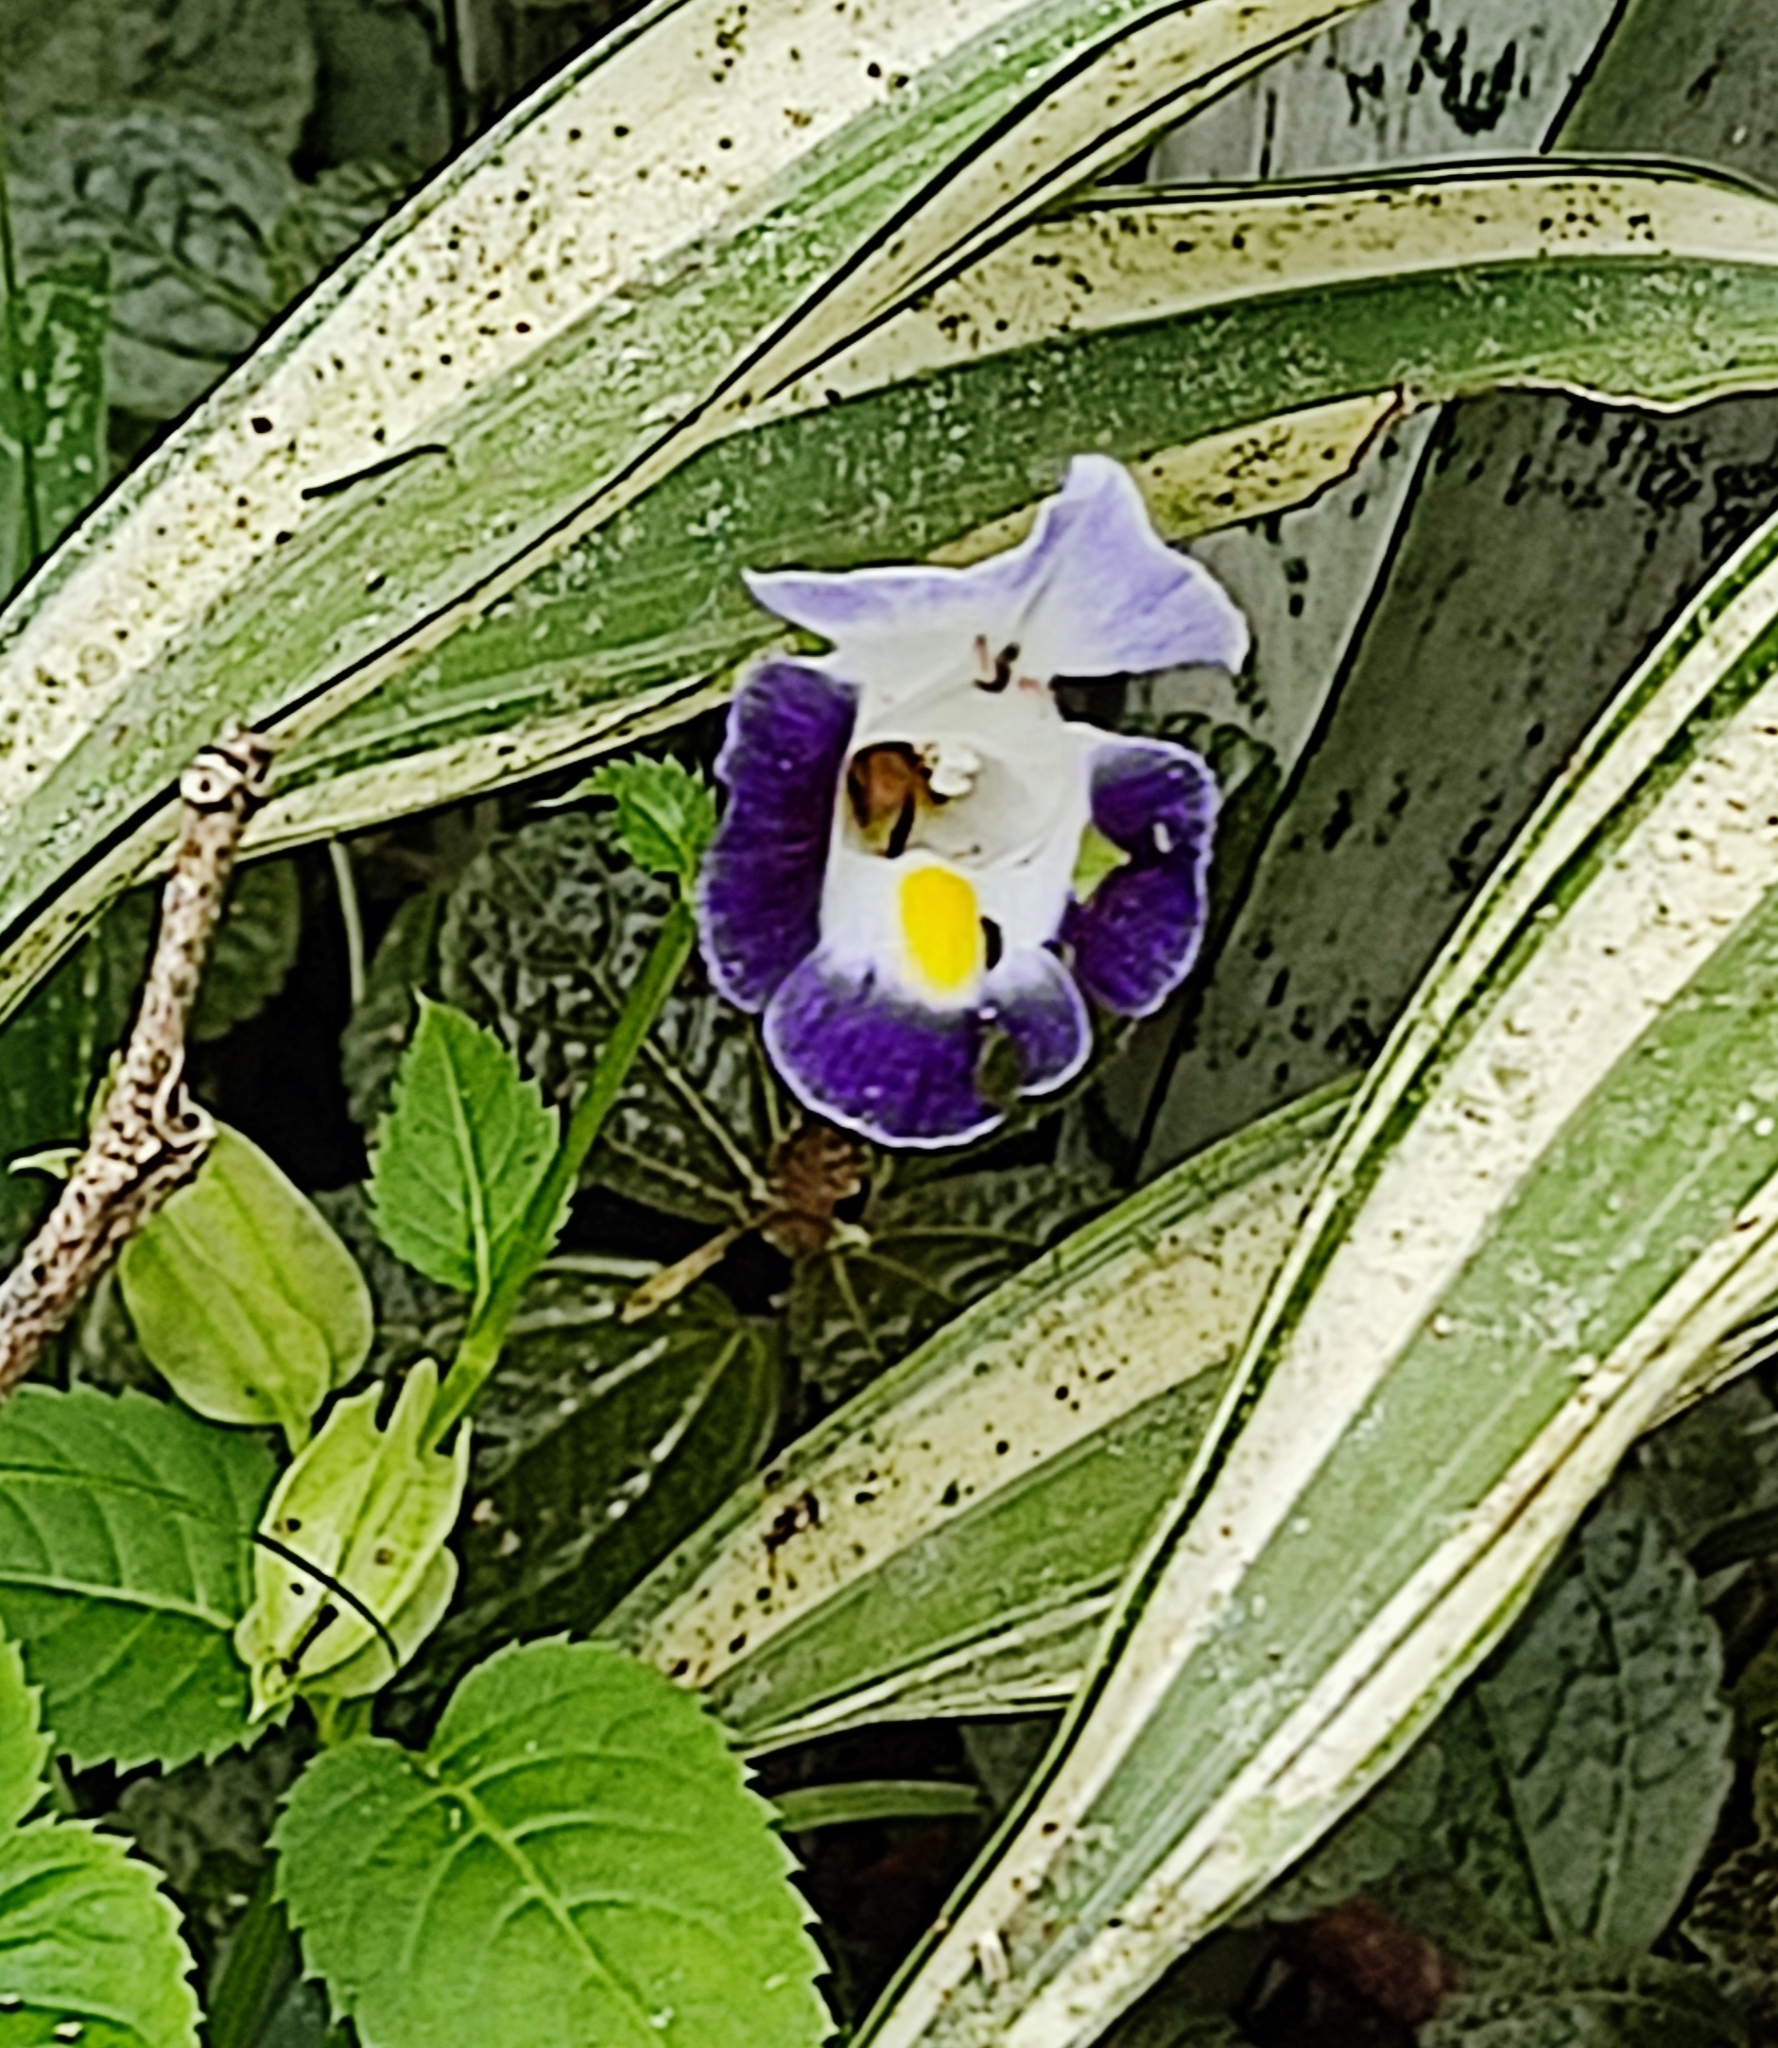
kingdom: Plantae
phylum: Tracheophyta
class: Magnoliopsida
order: Lamiales
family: Linderniaceae
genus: Torenia
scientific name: Torenia fournieri
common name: Bluewings
